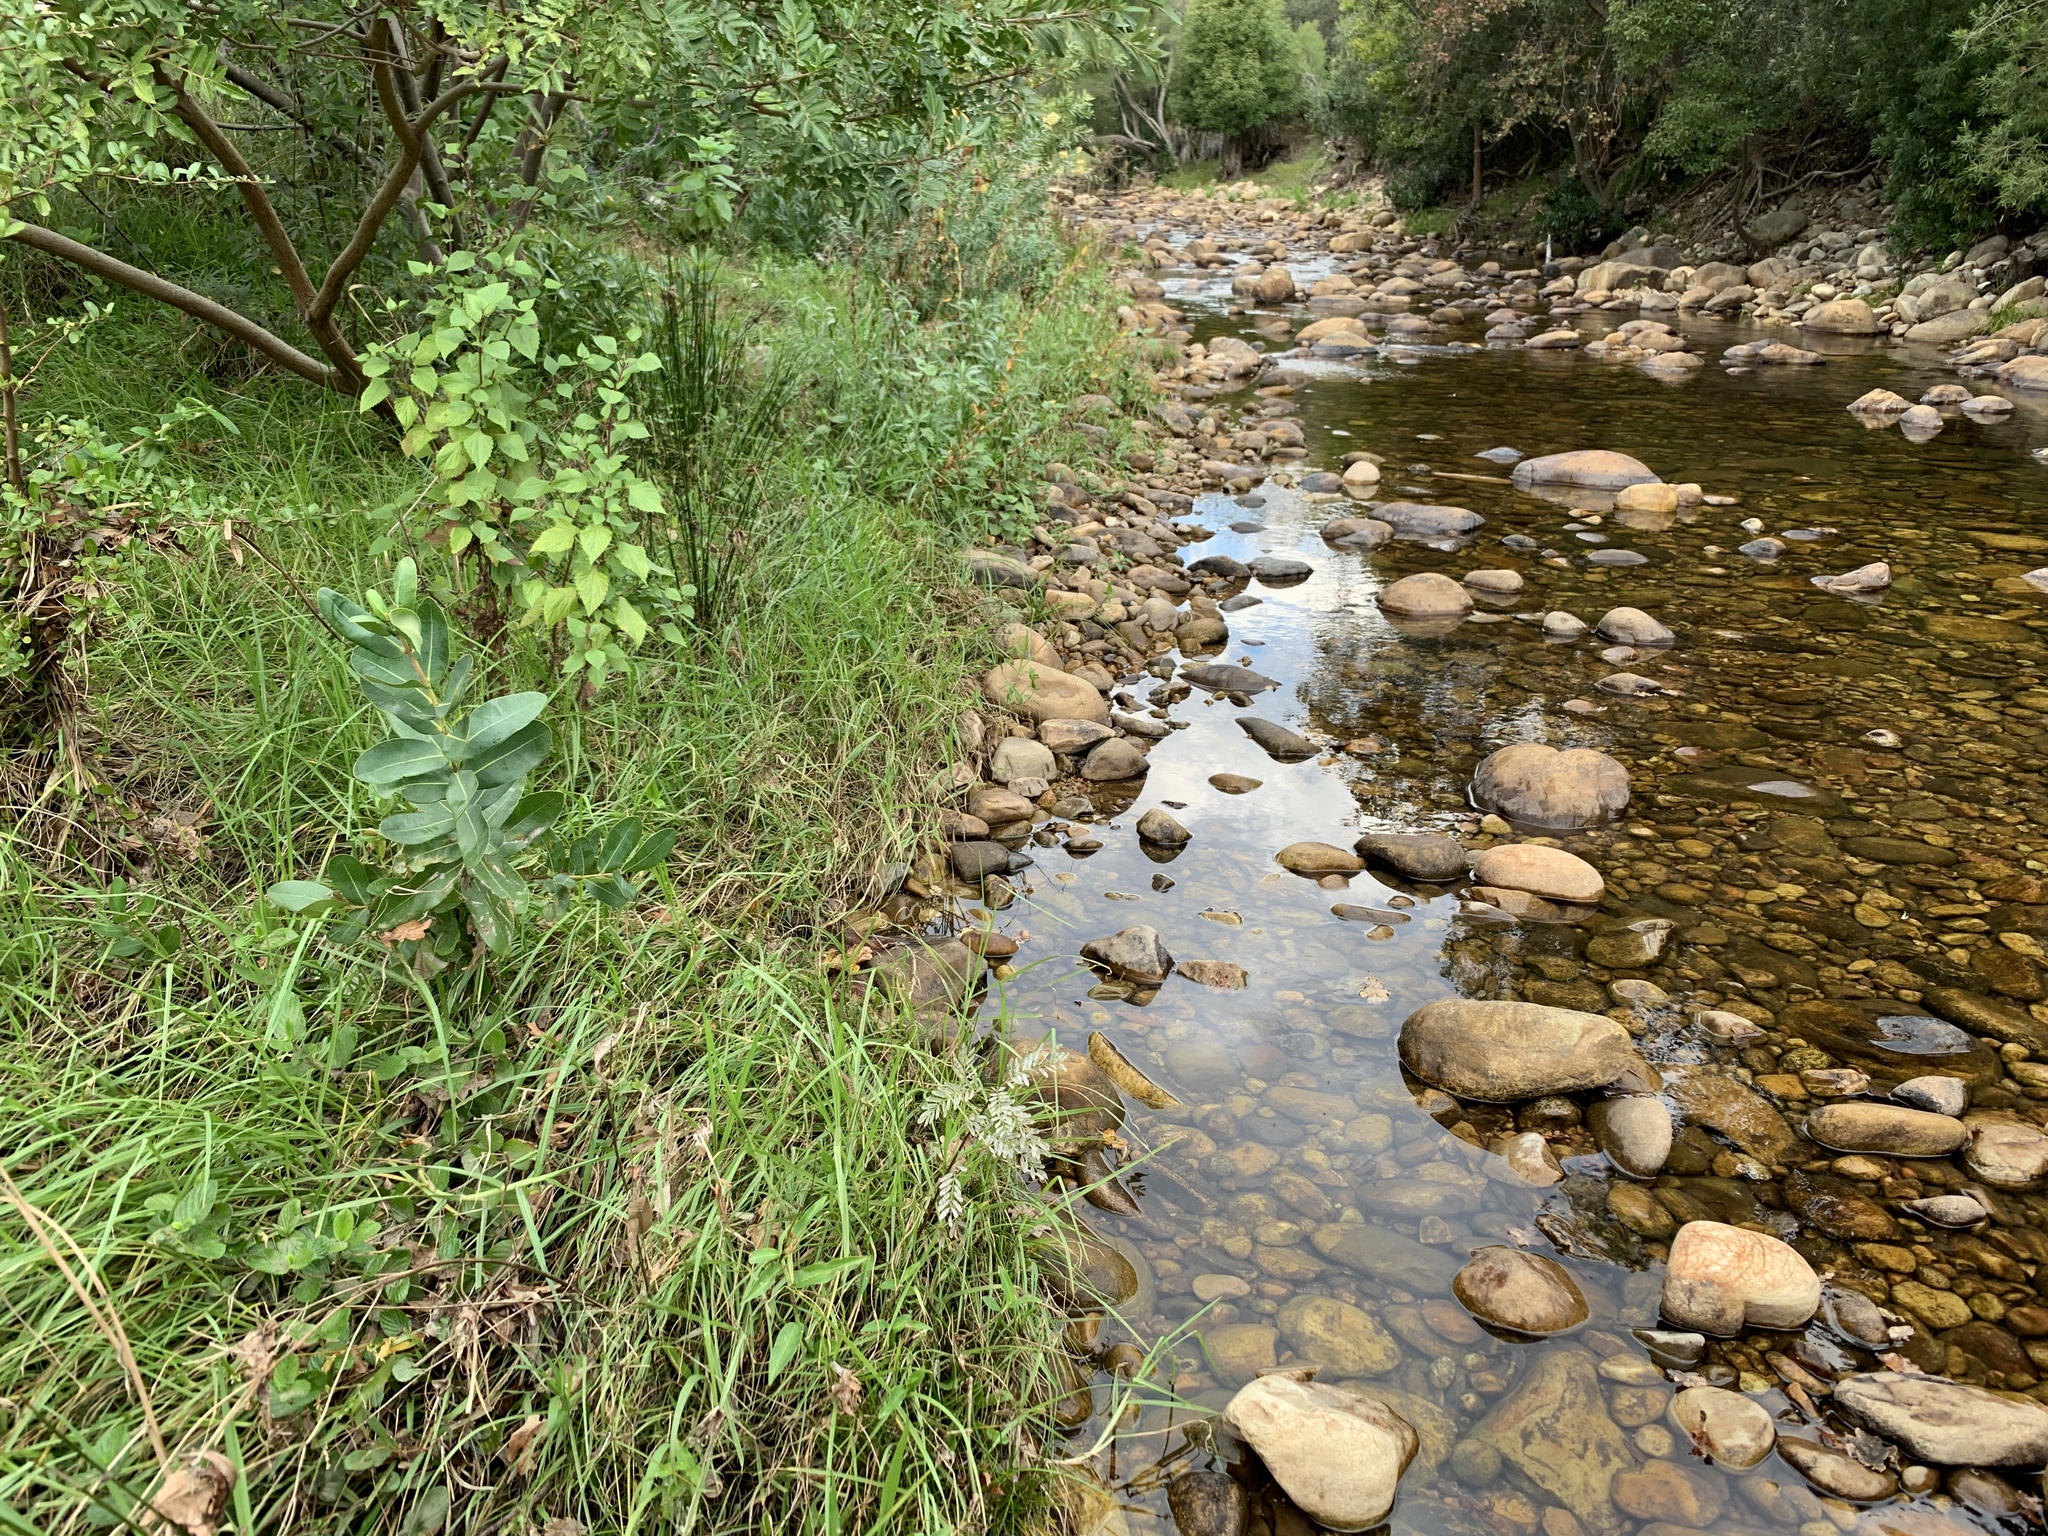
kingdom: Plantae
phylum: Tracheophyta
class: Magnoliopsida
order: Myrtales
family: Myrtaceae
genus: Syzygium
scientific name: Syzygium cordatum
